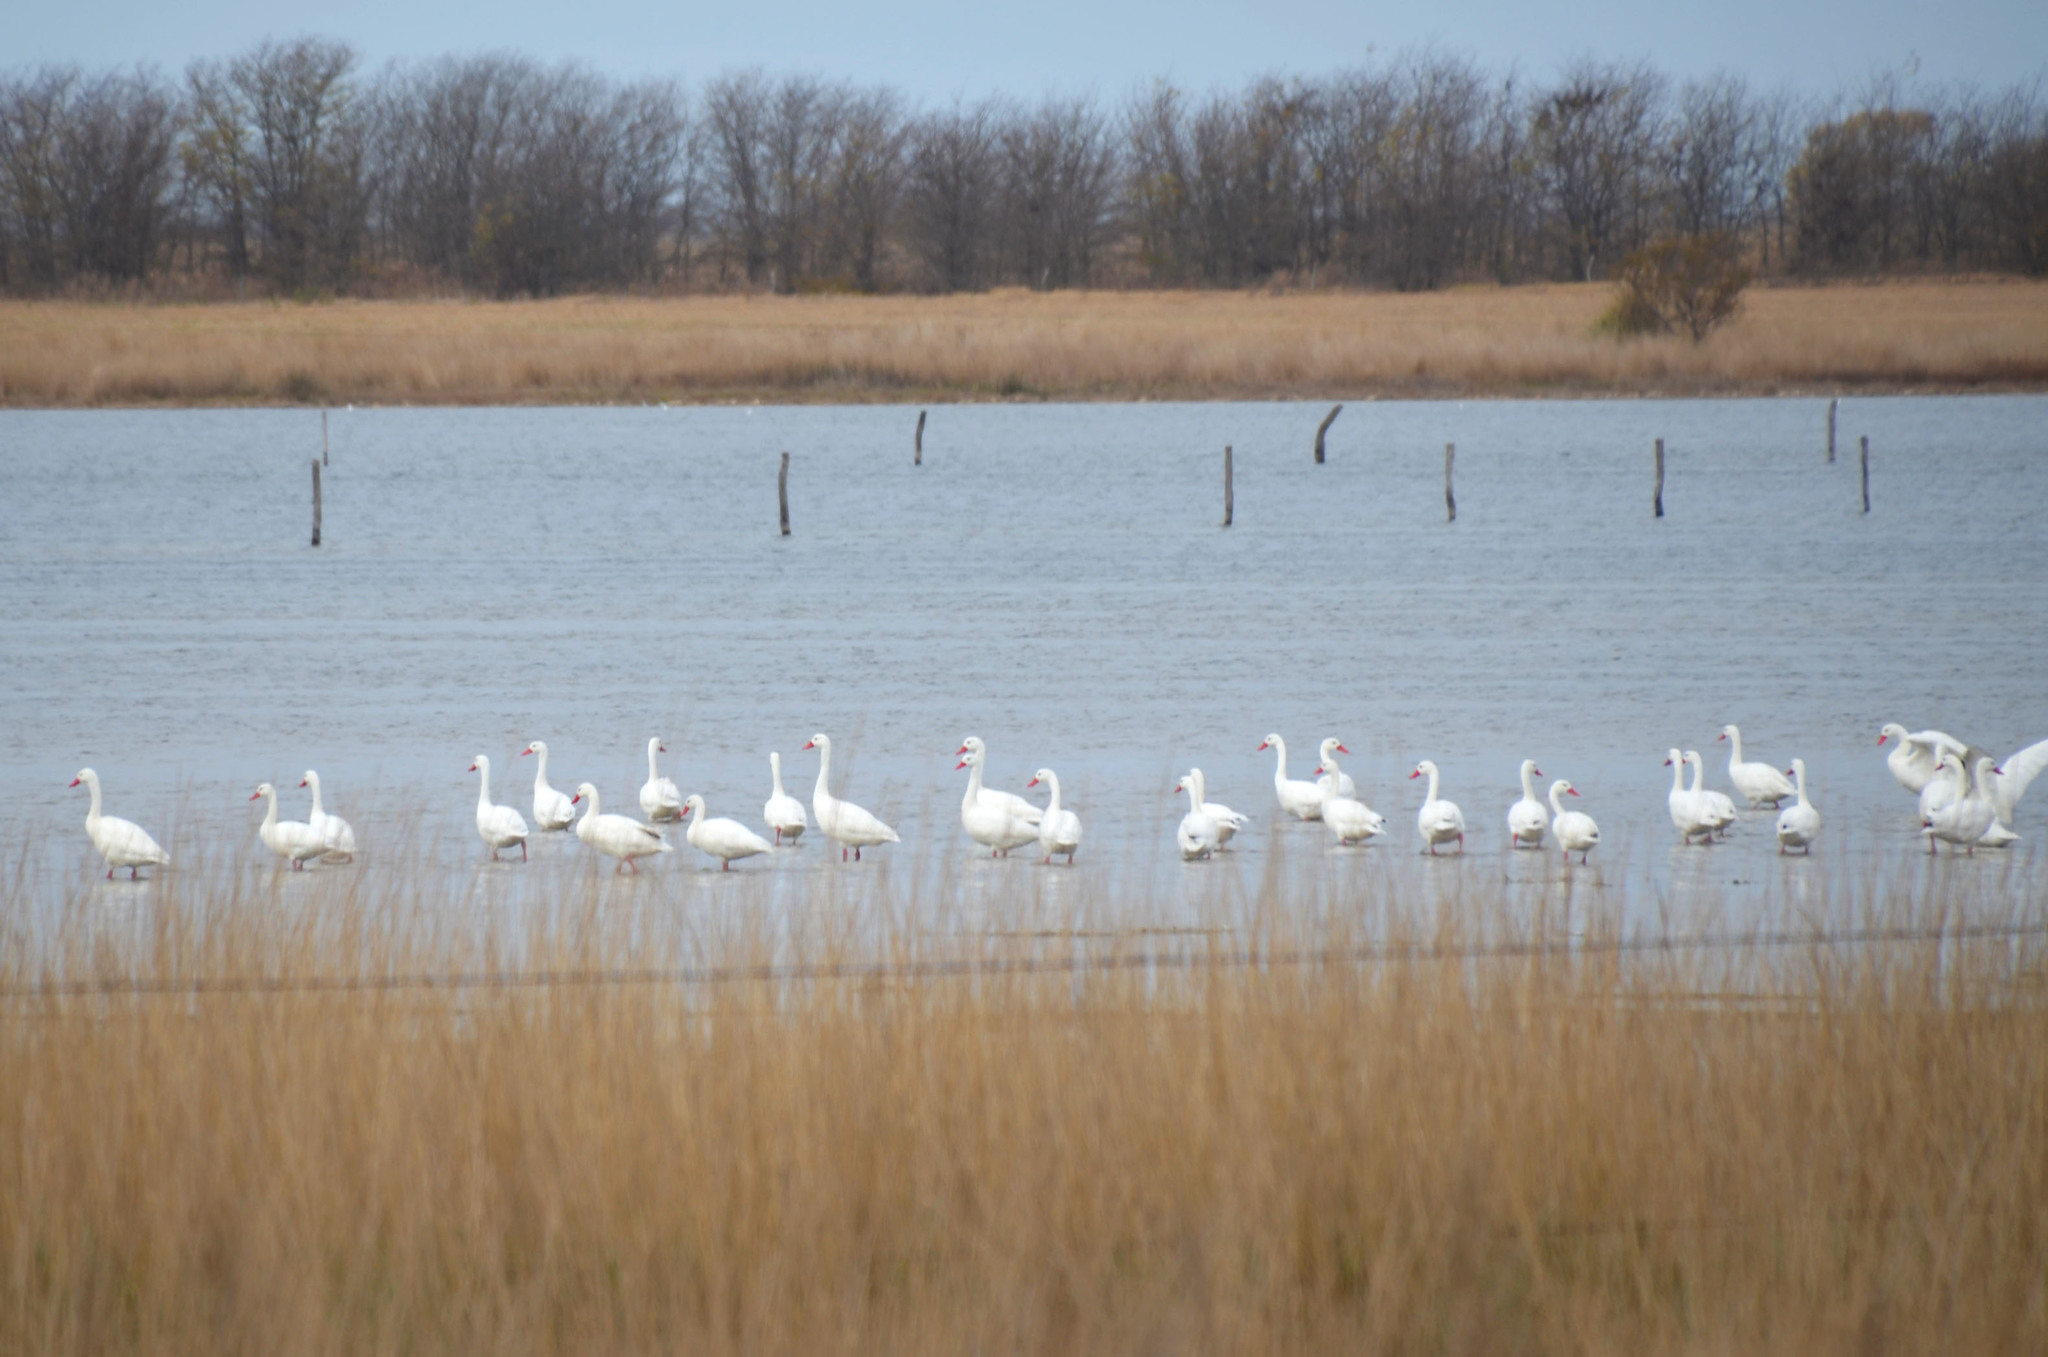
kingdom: Animalia
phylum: Chordata
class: Aves
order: Anseriformes
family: Anatidae
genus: Coscoroba
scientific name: Coscoroba coscoroba
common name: Coscoroba swan
